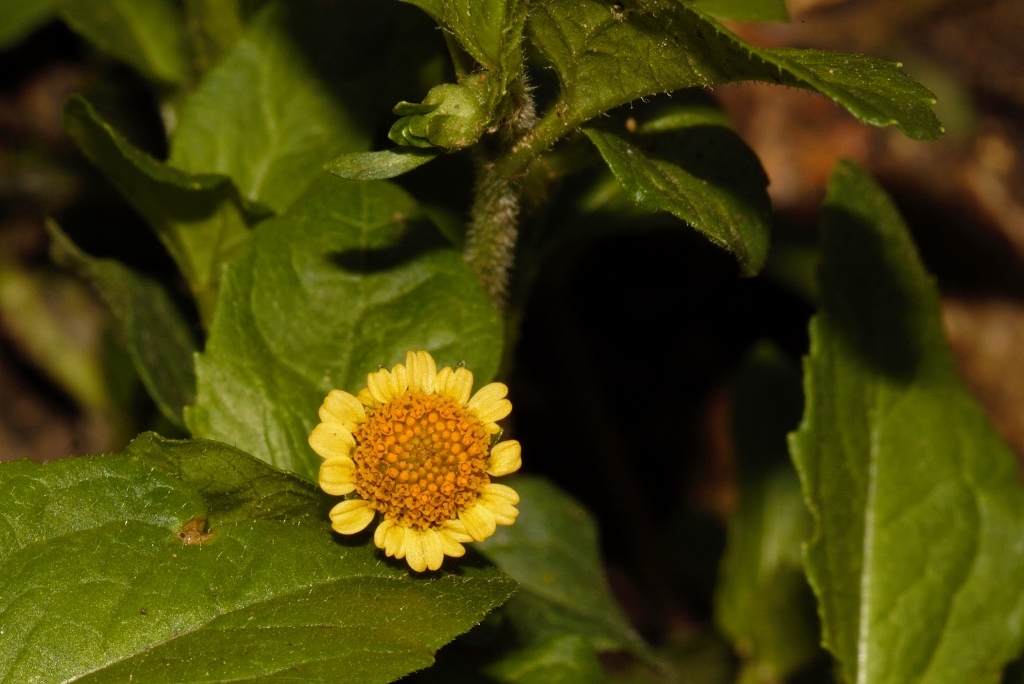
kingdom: Plantae
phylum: Tracheophyta
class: Magnoliopsida
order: Asterales
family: Asteraceae
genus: Acmella
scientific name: Acmella caulirhiza
